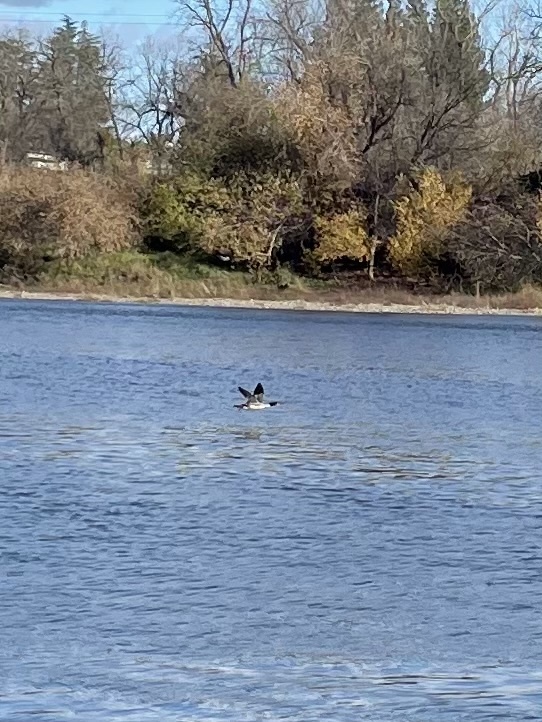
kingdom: Animalia
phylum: Chordata
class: Aves
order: Anseriformes
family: Anatidae
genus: Mergus
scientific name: Mergus merganser
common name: Common merganser
